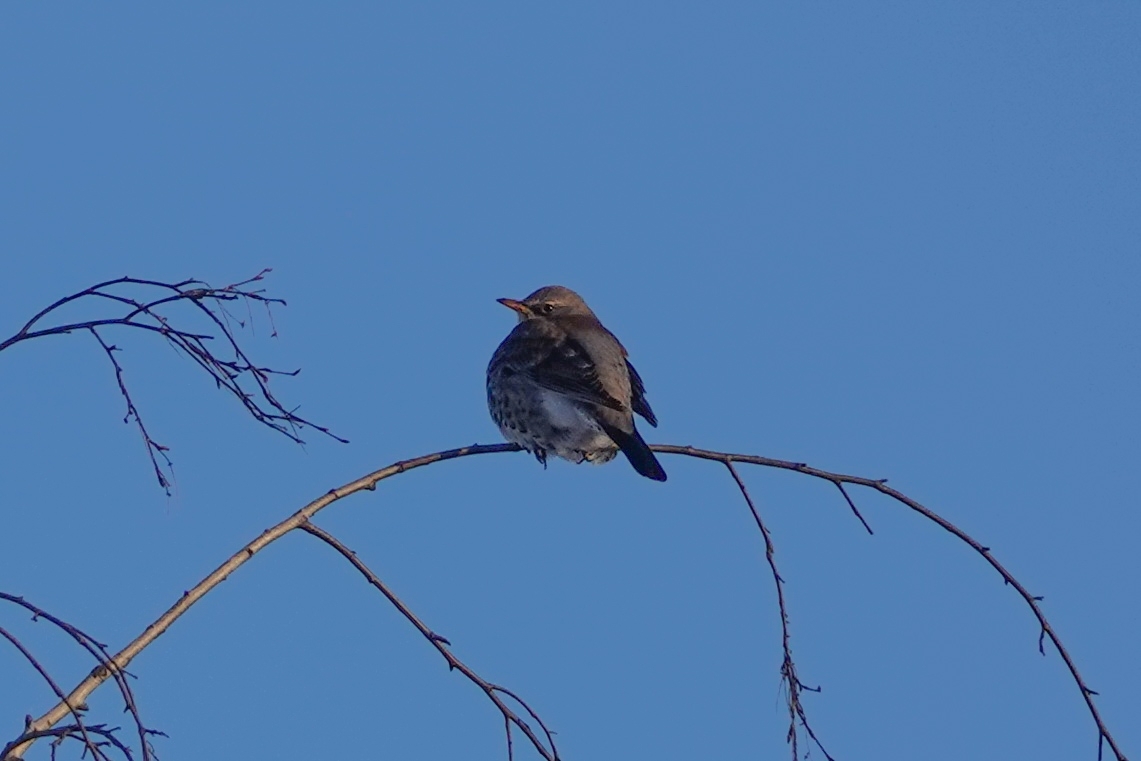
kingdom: Animalia
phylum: Chordata
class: Aves
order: Passeriformes
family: Turdidae
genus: Turdus
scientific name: Turdus pilaris
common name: Fieldfare
